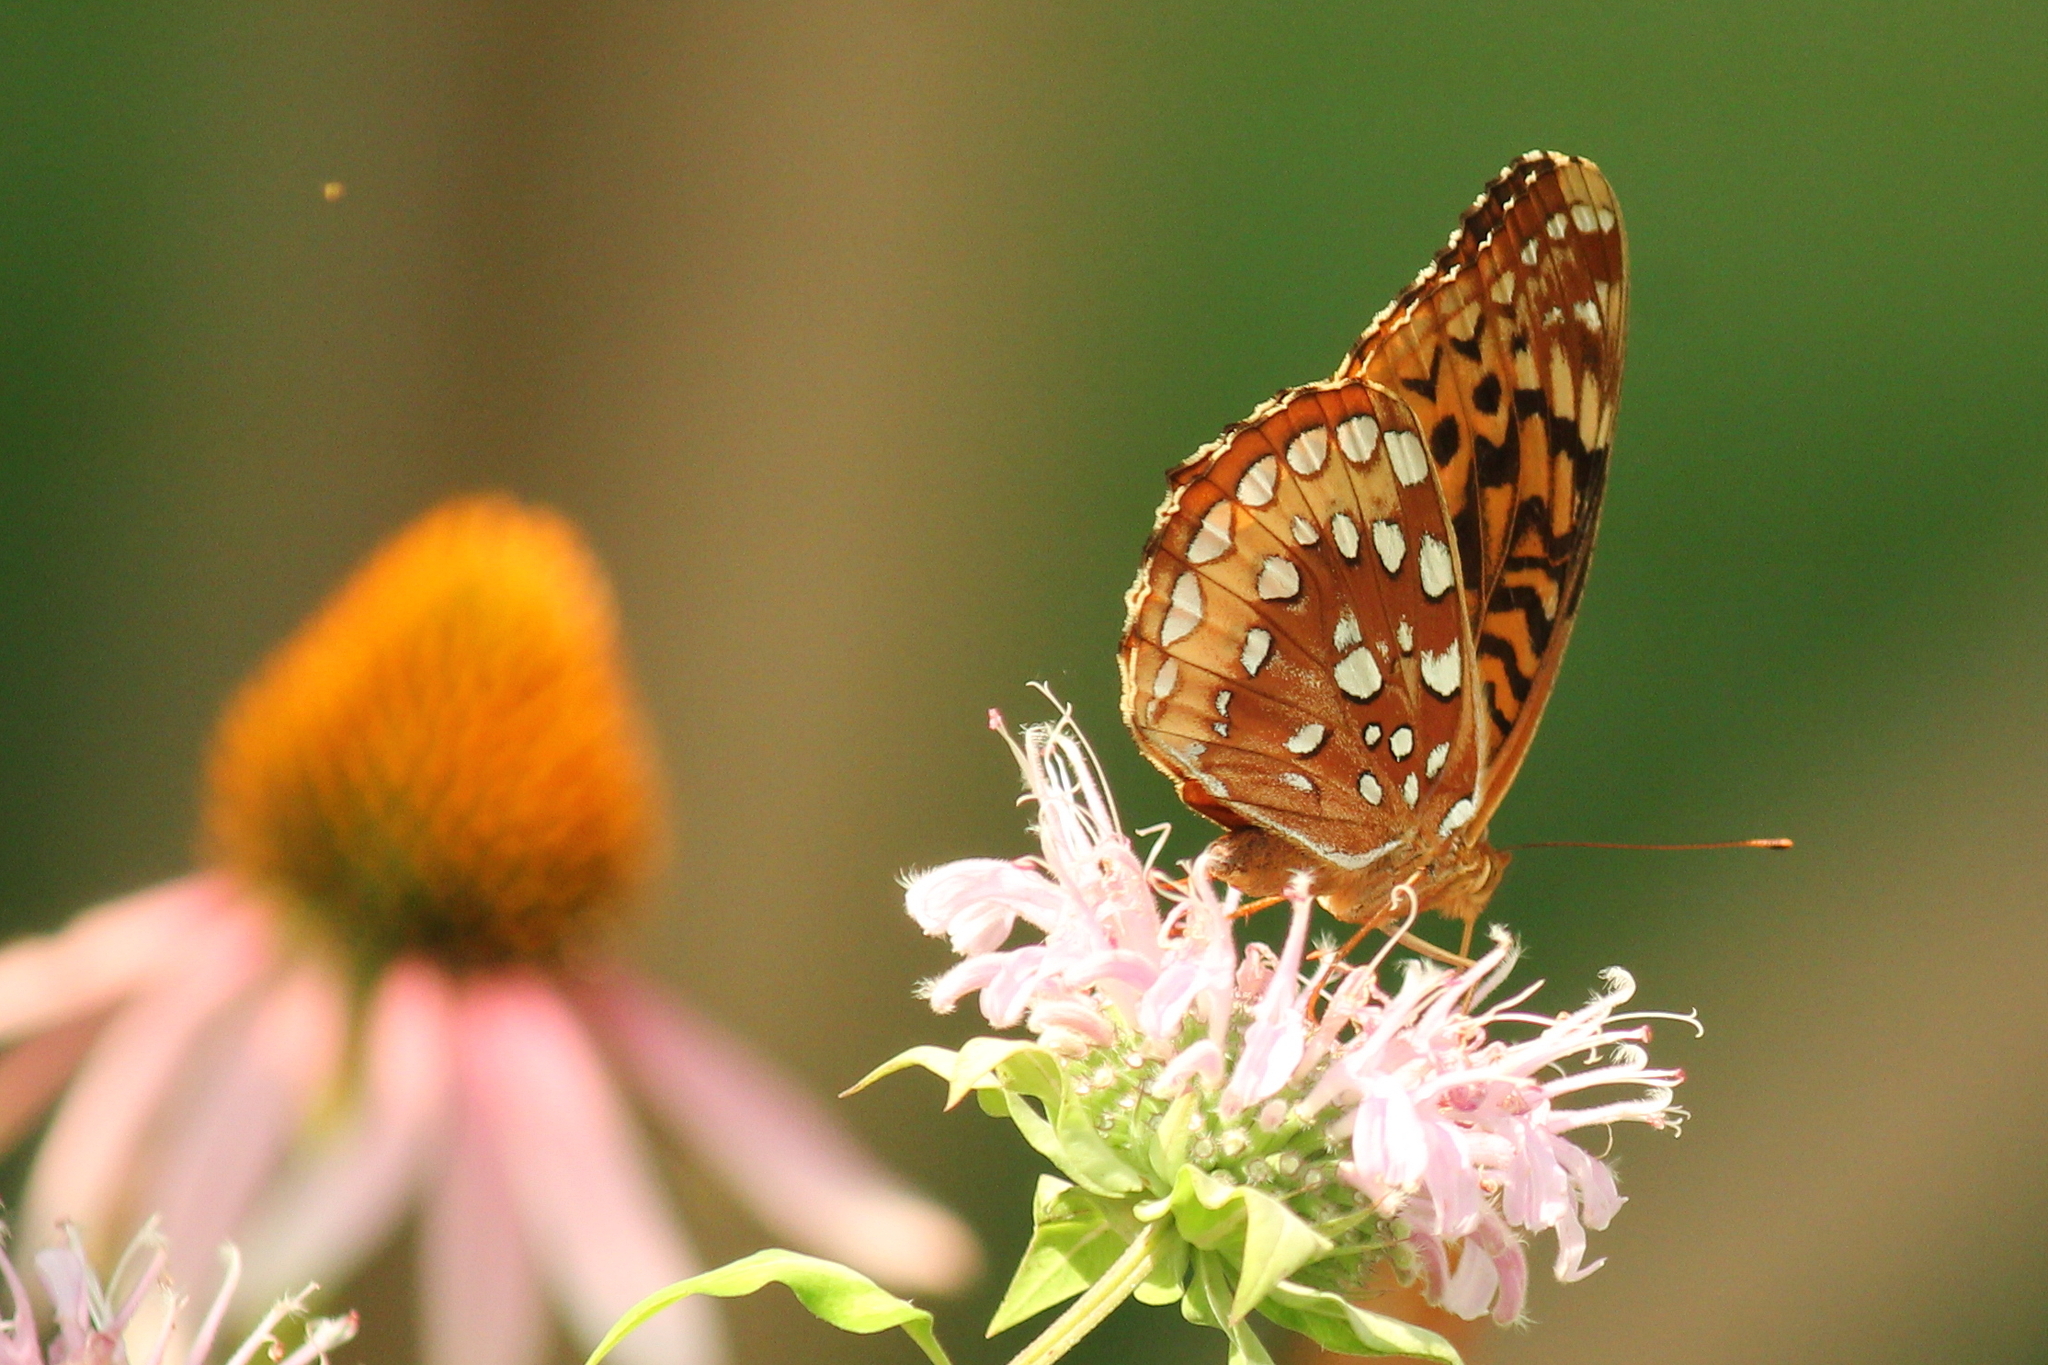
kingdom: Animalia
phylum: Arthropoda
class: Insecta
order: Lepidoptera
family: Nymphalidae
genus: Speyeria
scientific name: Speyeria cybele
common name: Great spangled fritillary
